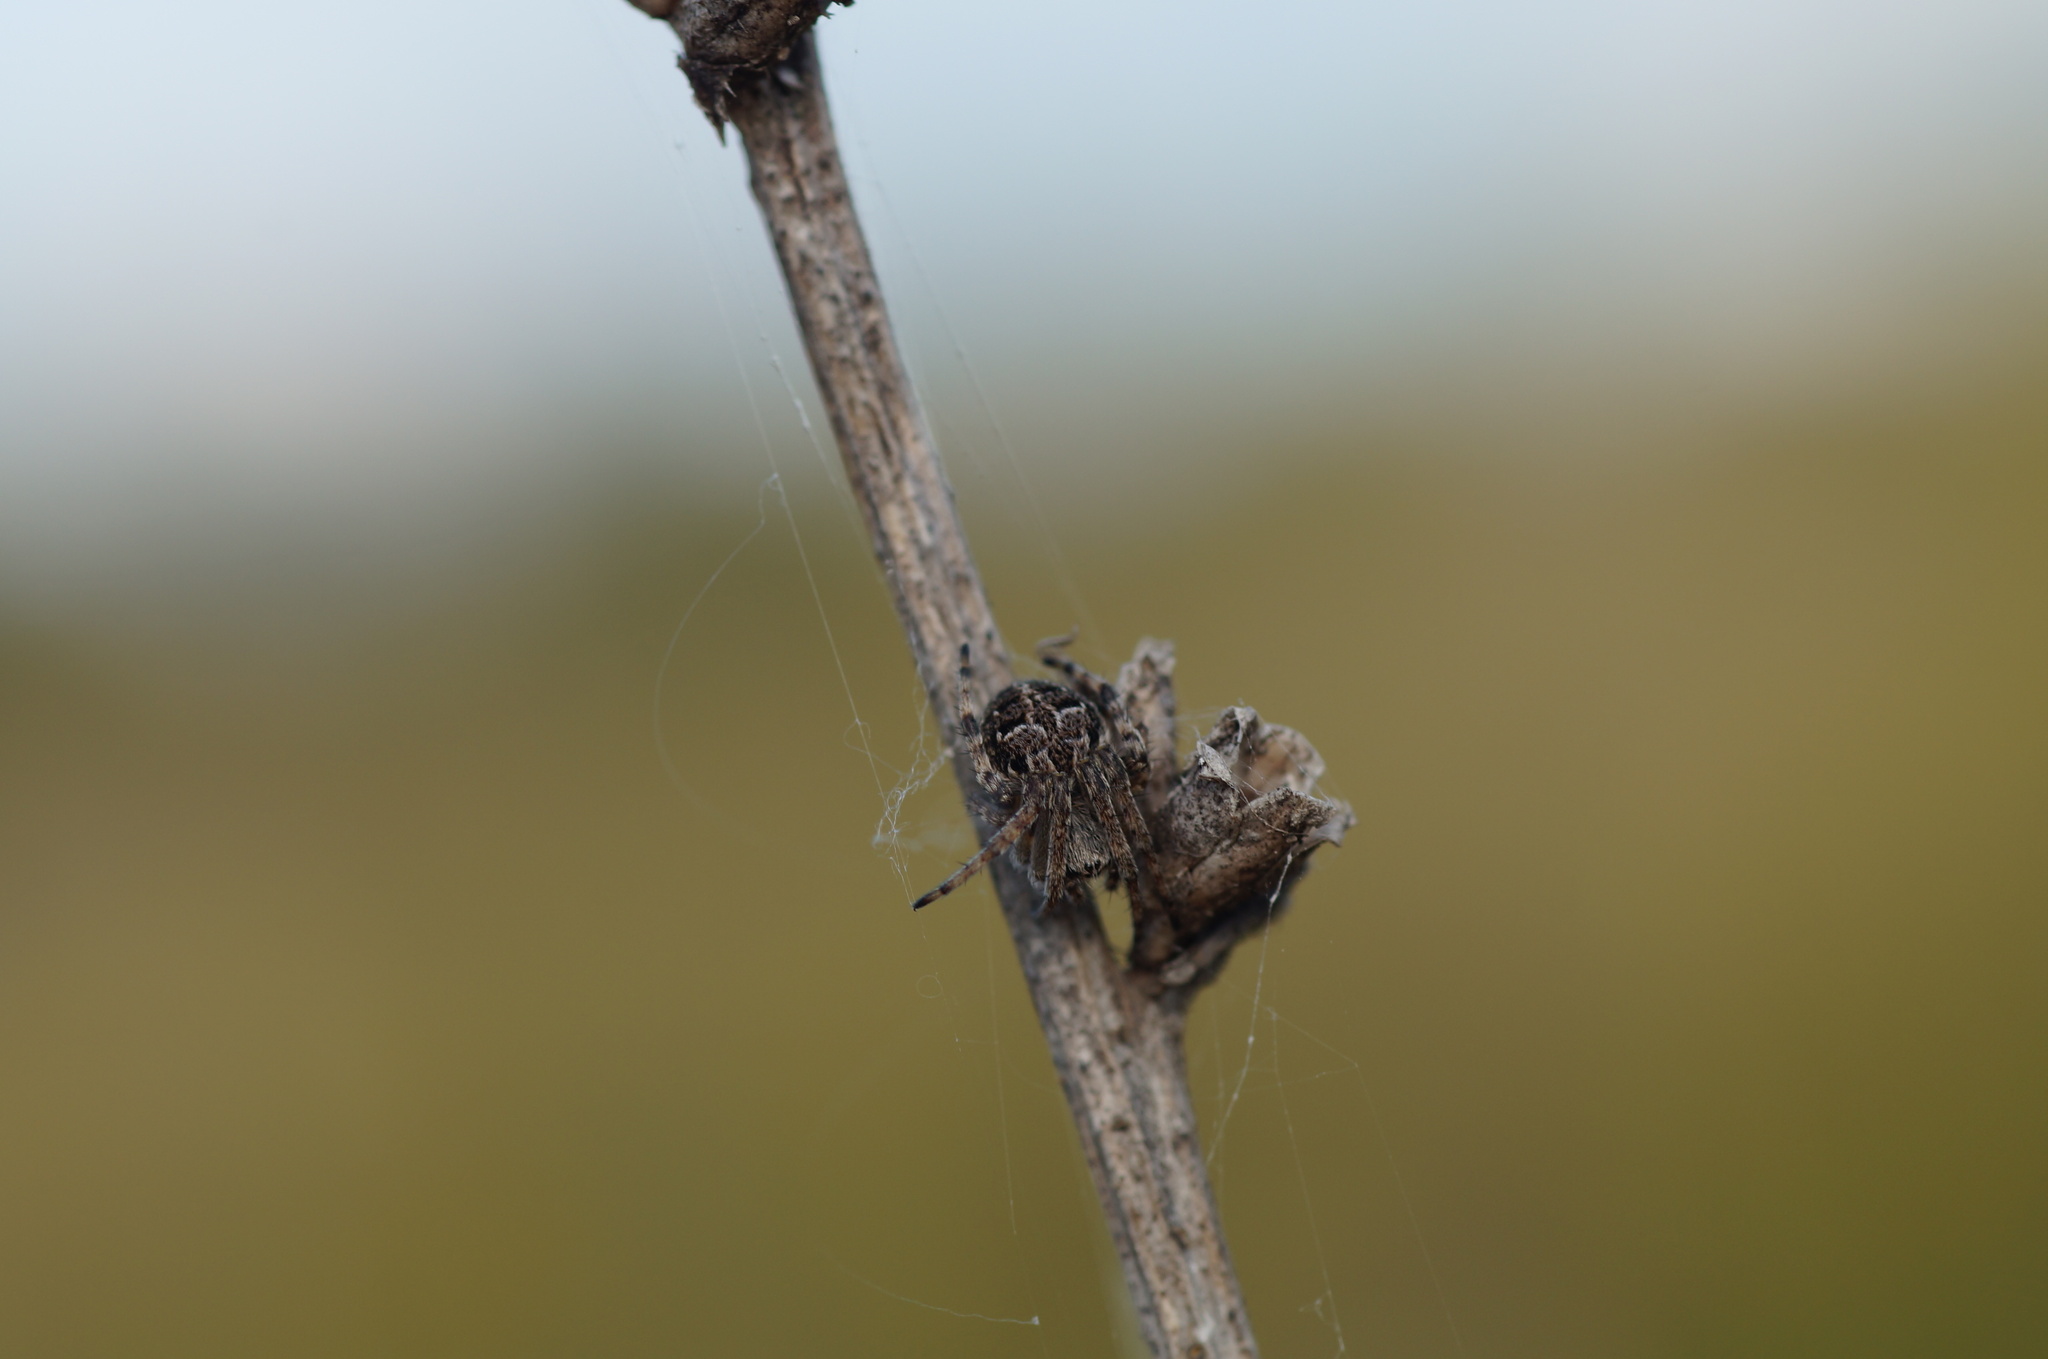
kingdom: Animalia
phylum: Arthropoda
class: Arachnida
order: Araneae
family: Araneidae
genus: Agalenatea
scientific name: Agalenatea redii
